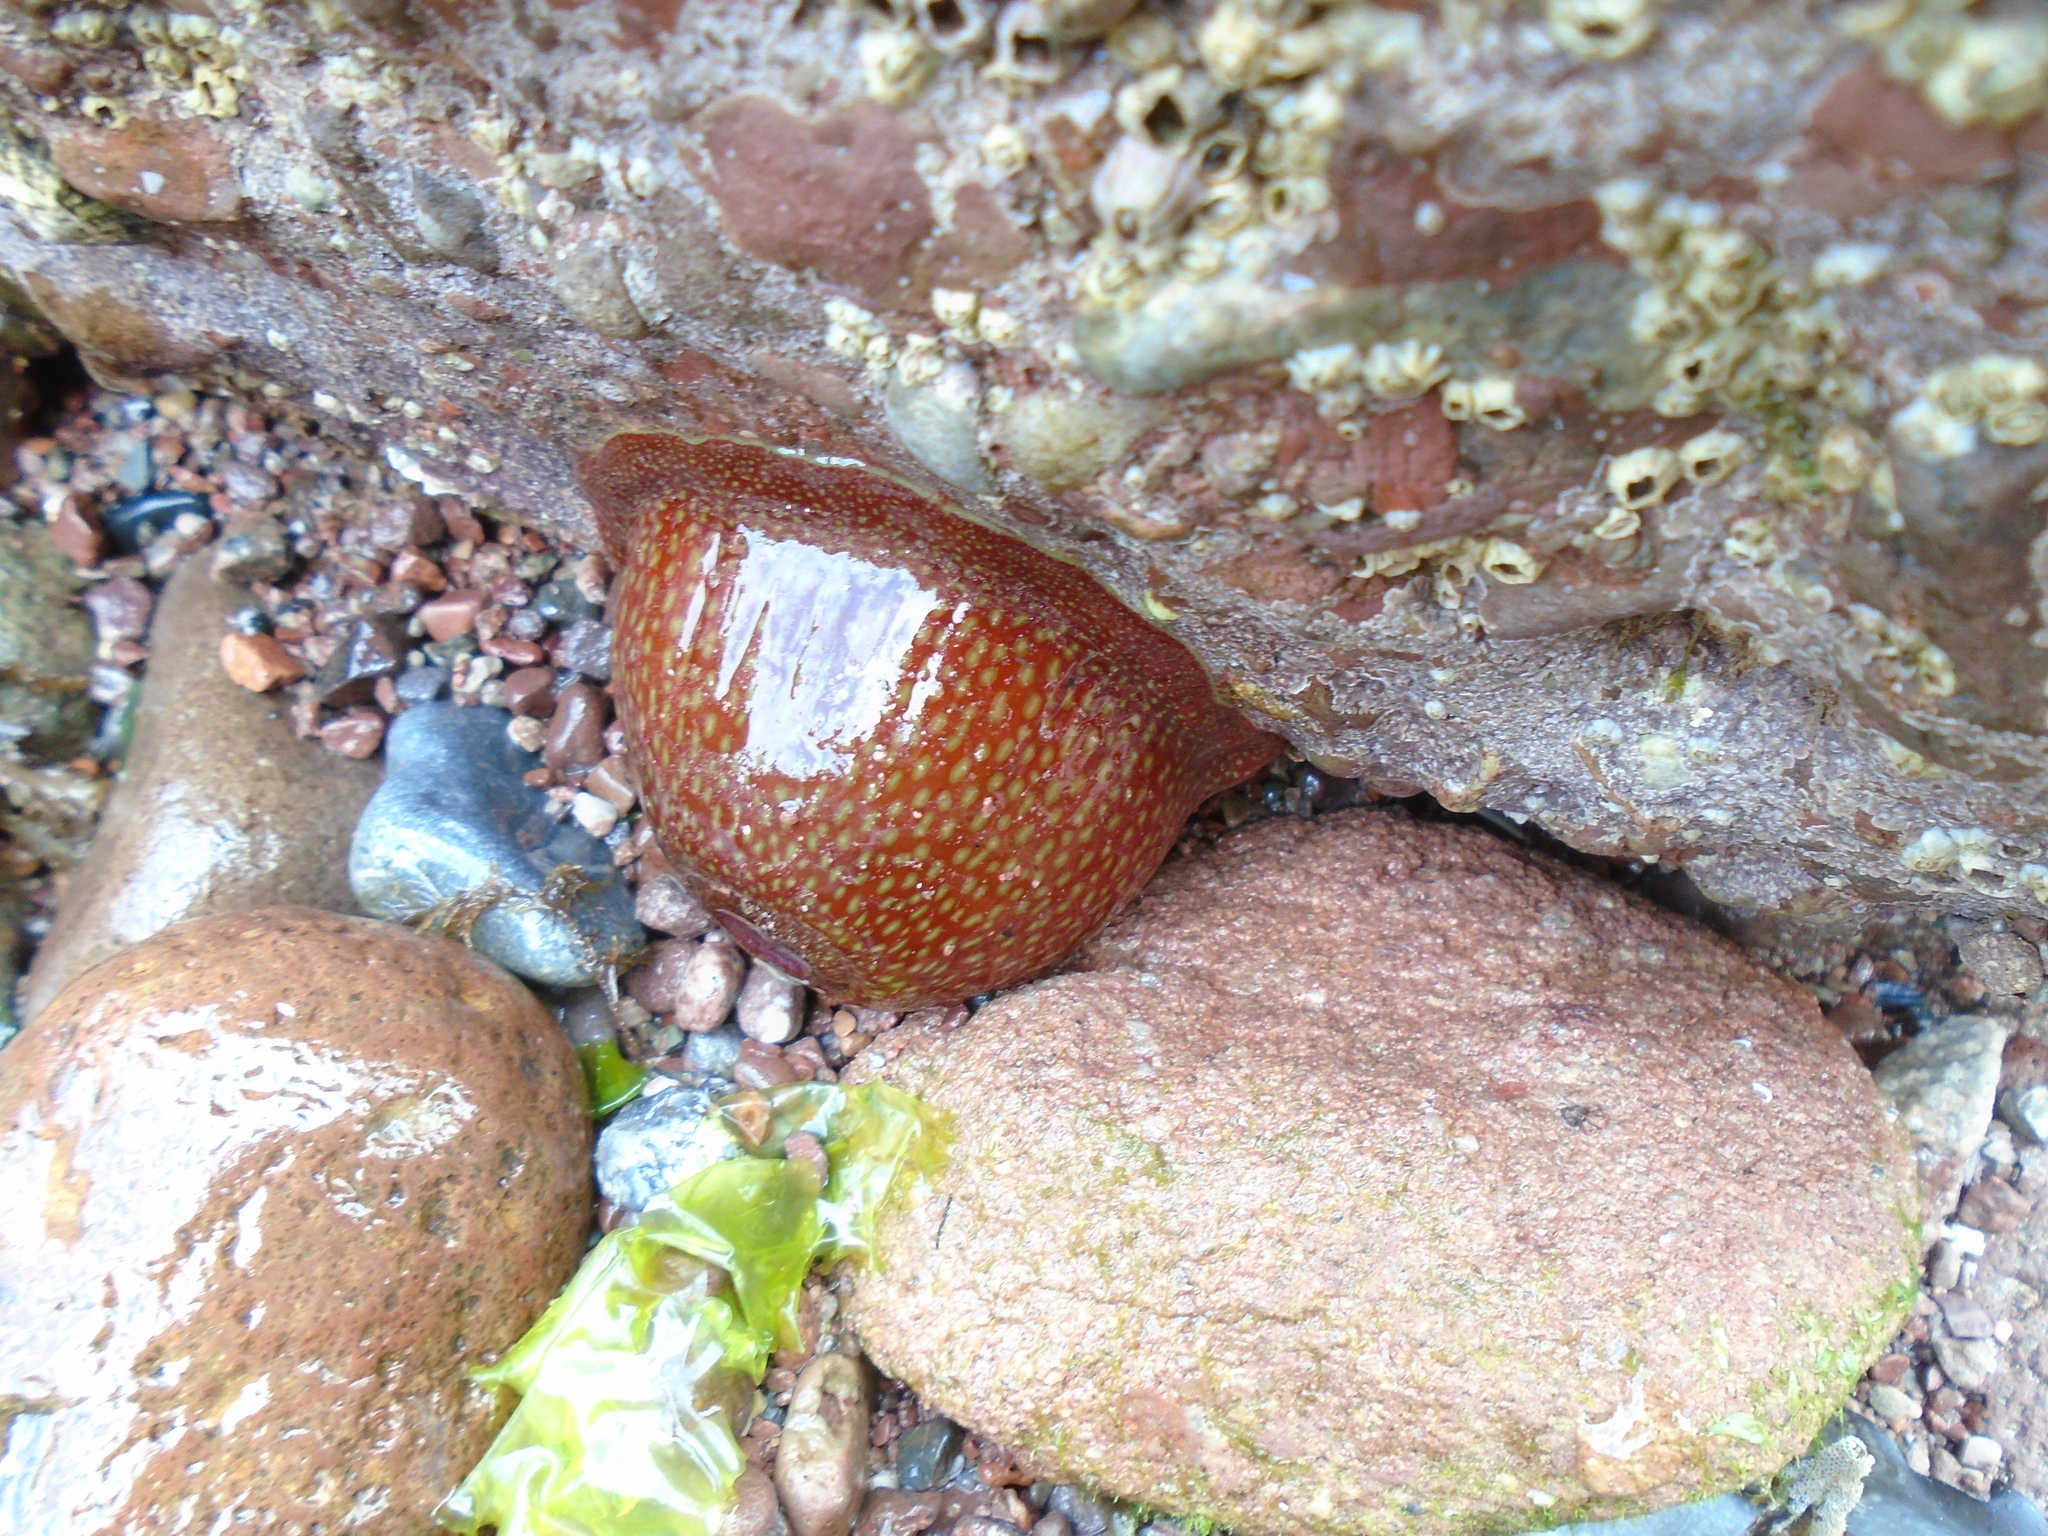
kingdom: Animalia
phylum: Cnidaria
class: Anthozoa
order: Actiniaria
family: Actiniidae
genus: Actinia
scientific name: Actinia fragacea
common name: Strawberry anemone
